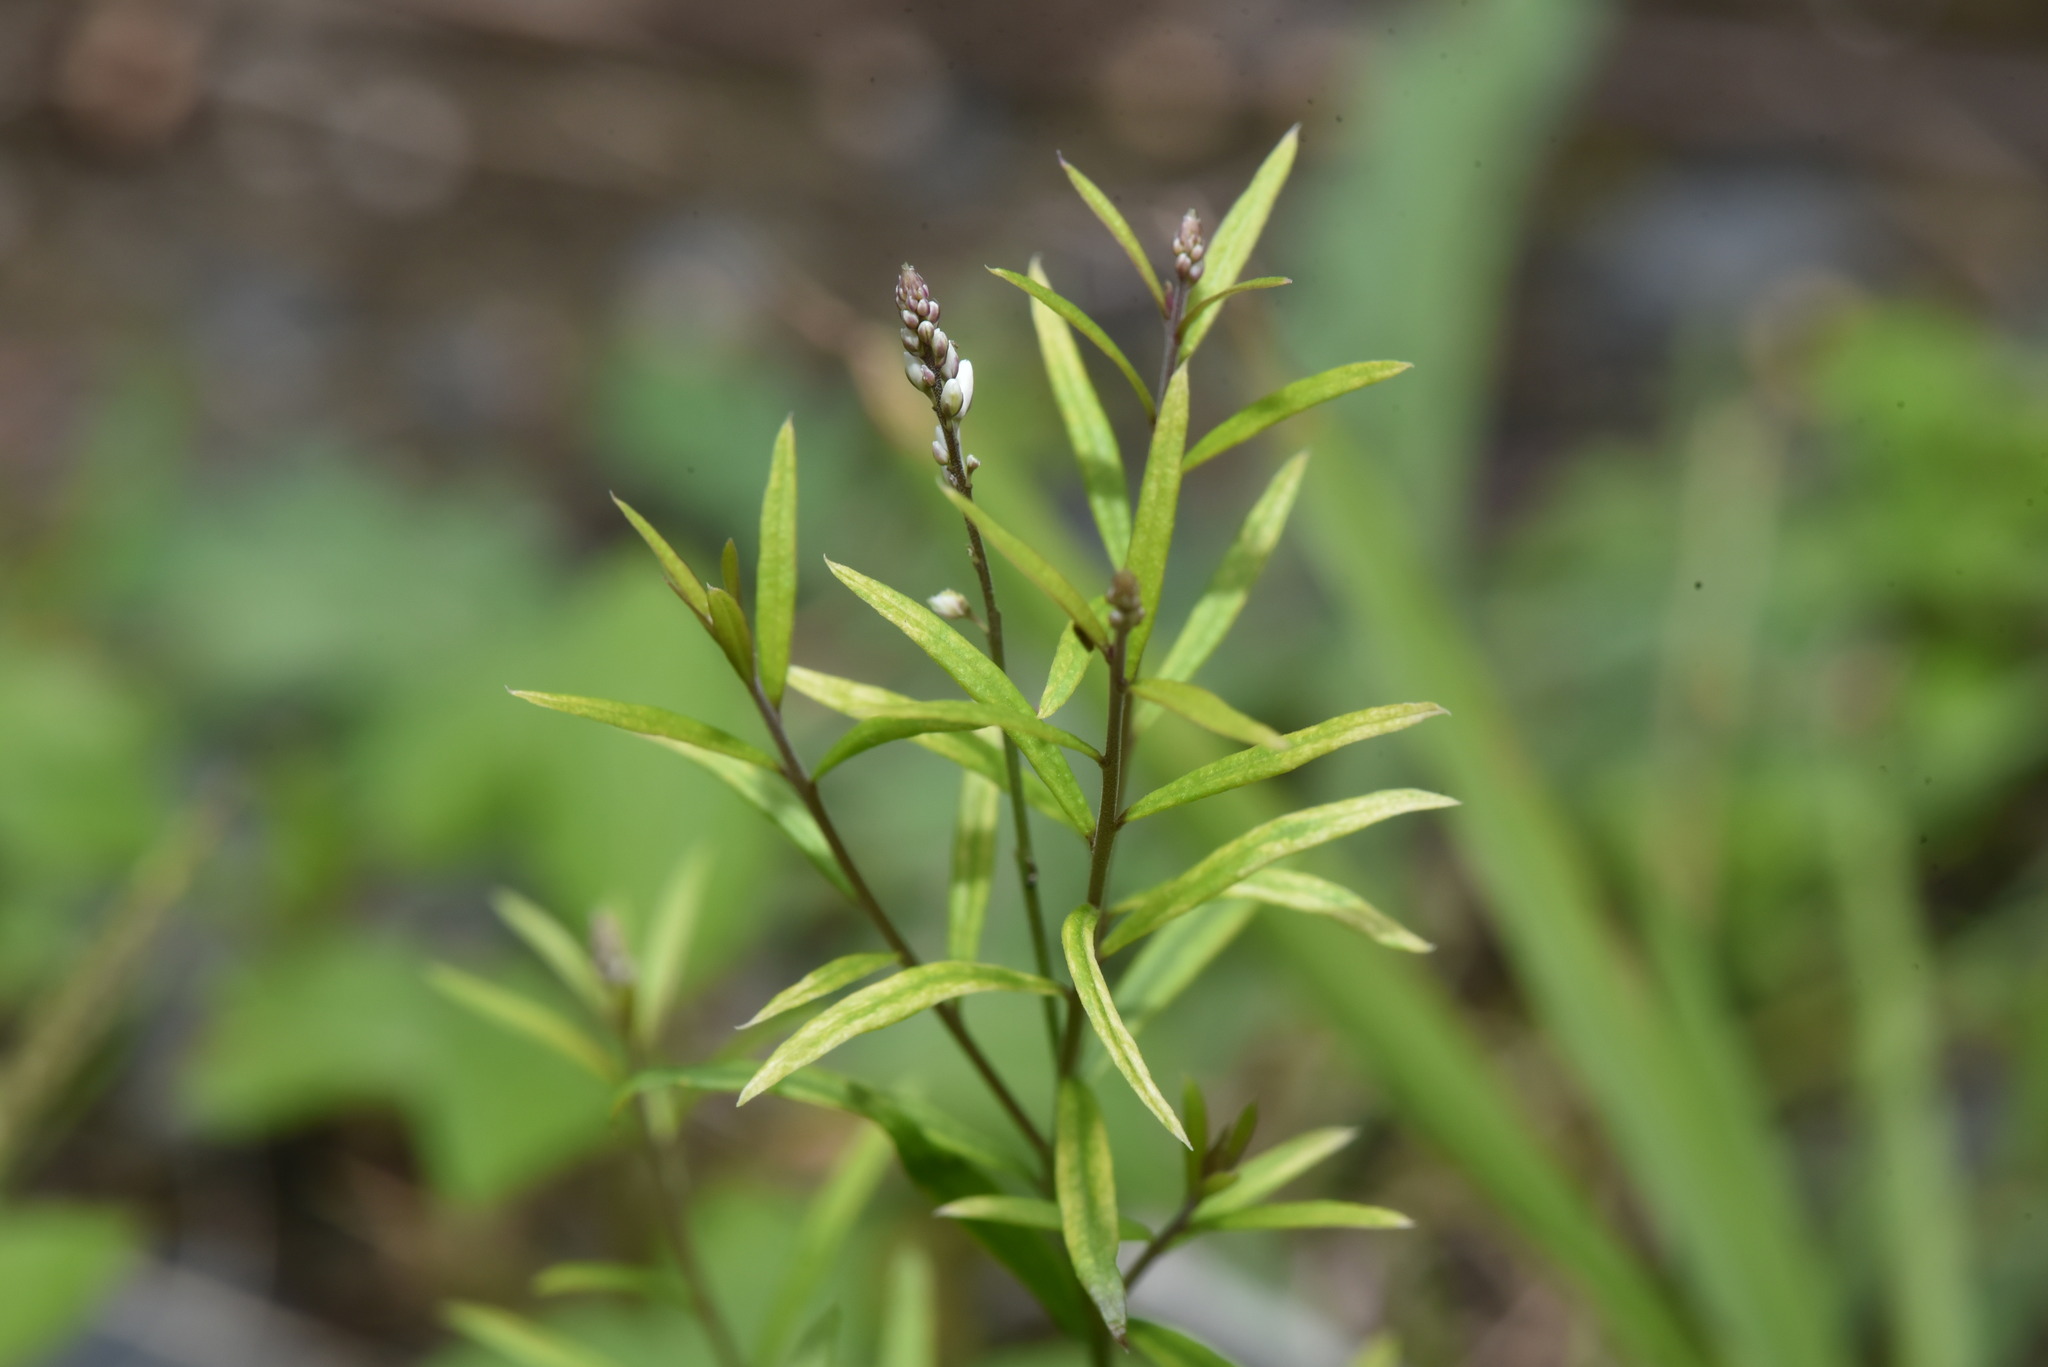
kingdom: Plantae
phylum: Tracheophyta
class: Magnoliopsida
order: Fabales
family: Polygalaceae
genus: Polygala
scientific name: Polygala paniculata
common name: Orosne
